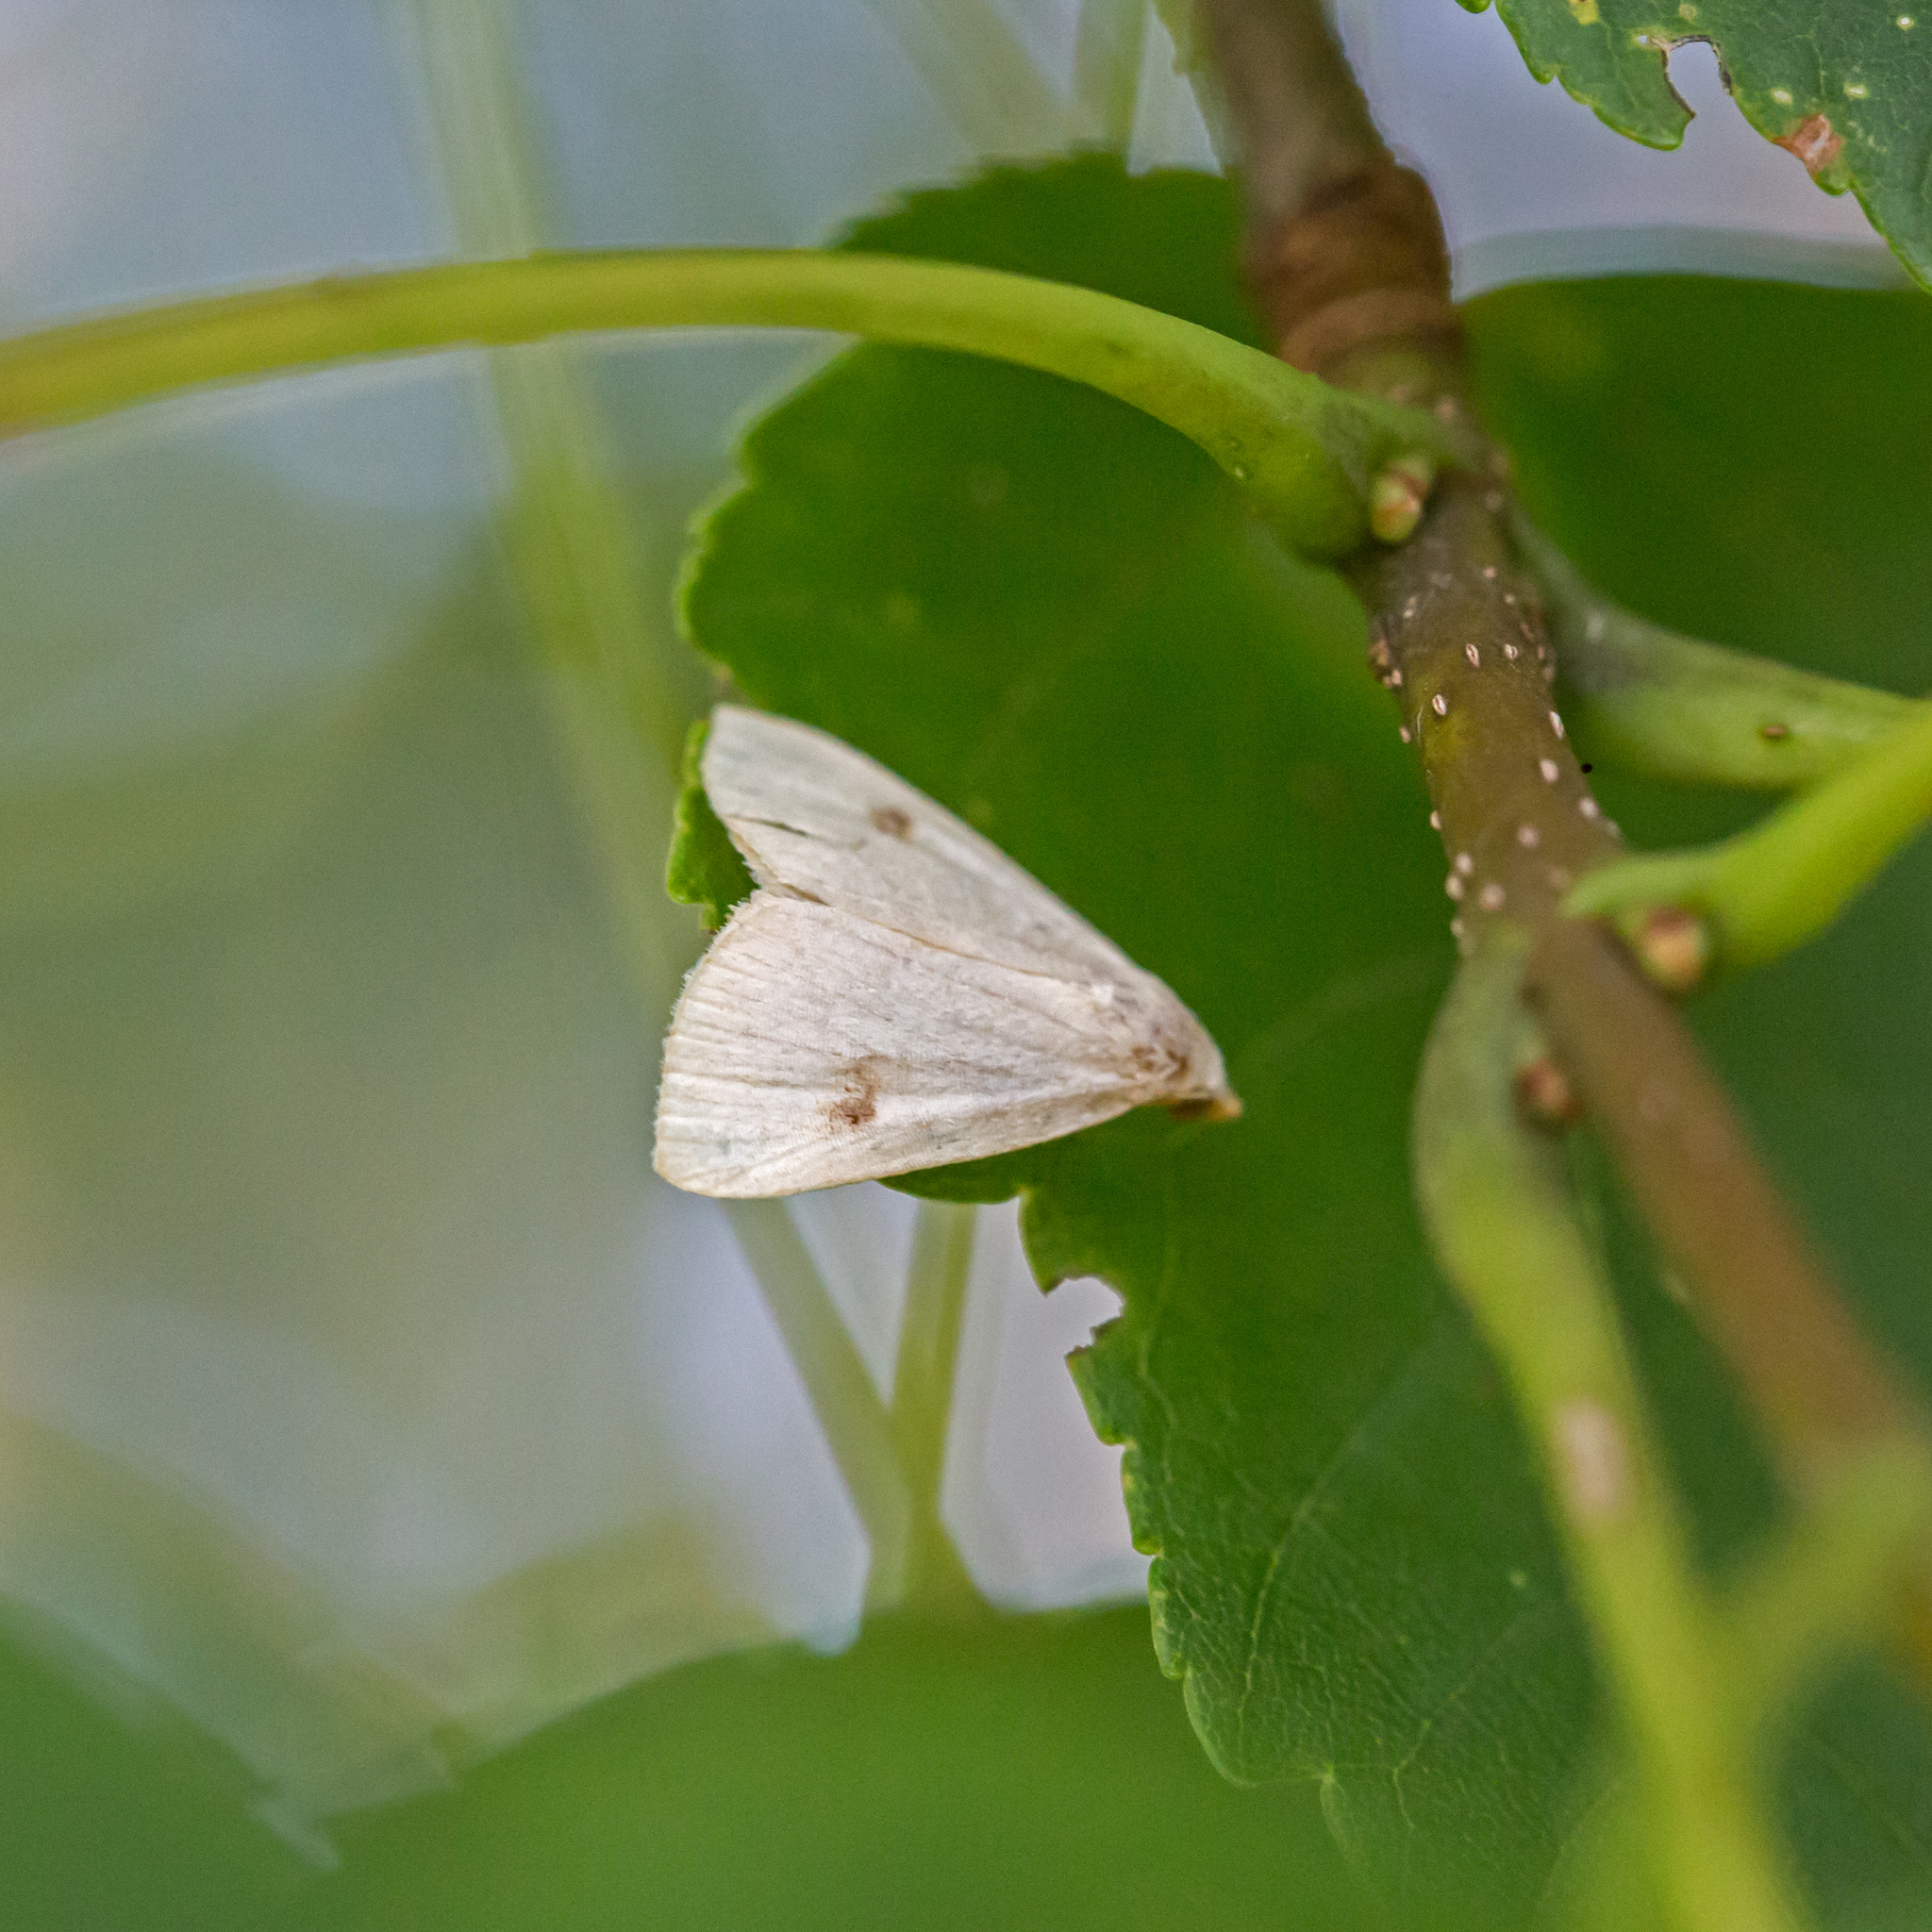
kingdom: Animalia
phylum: Arthropoda
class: Insecta
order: Lepidoptera
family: Erebidae
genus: Rivula
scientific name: Rivula propinqualis
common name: Spotted grass moth
